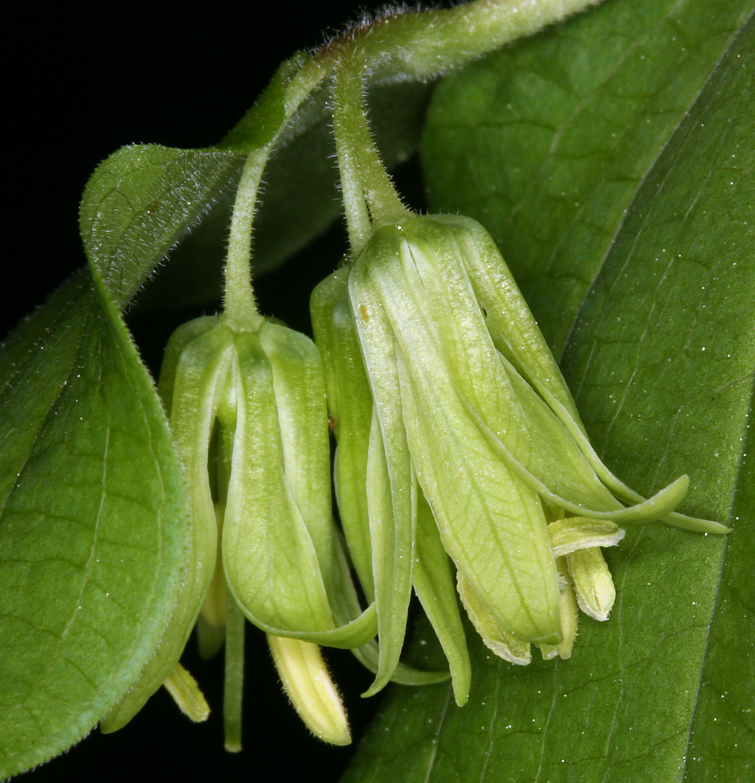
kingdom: Plantae
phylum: Tracheophyta
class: Liliopsida
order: Liliales
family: Liliaceae
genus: Prosartes
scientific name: Prosartes hookeri
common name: Fairy-bells
